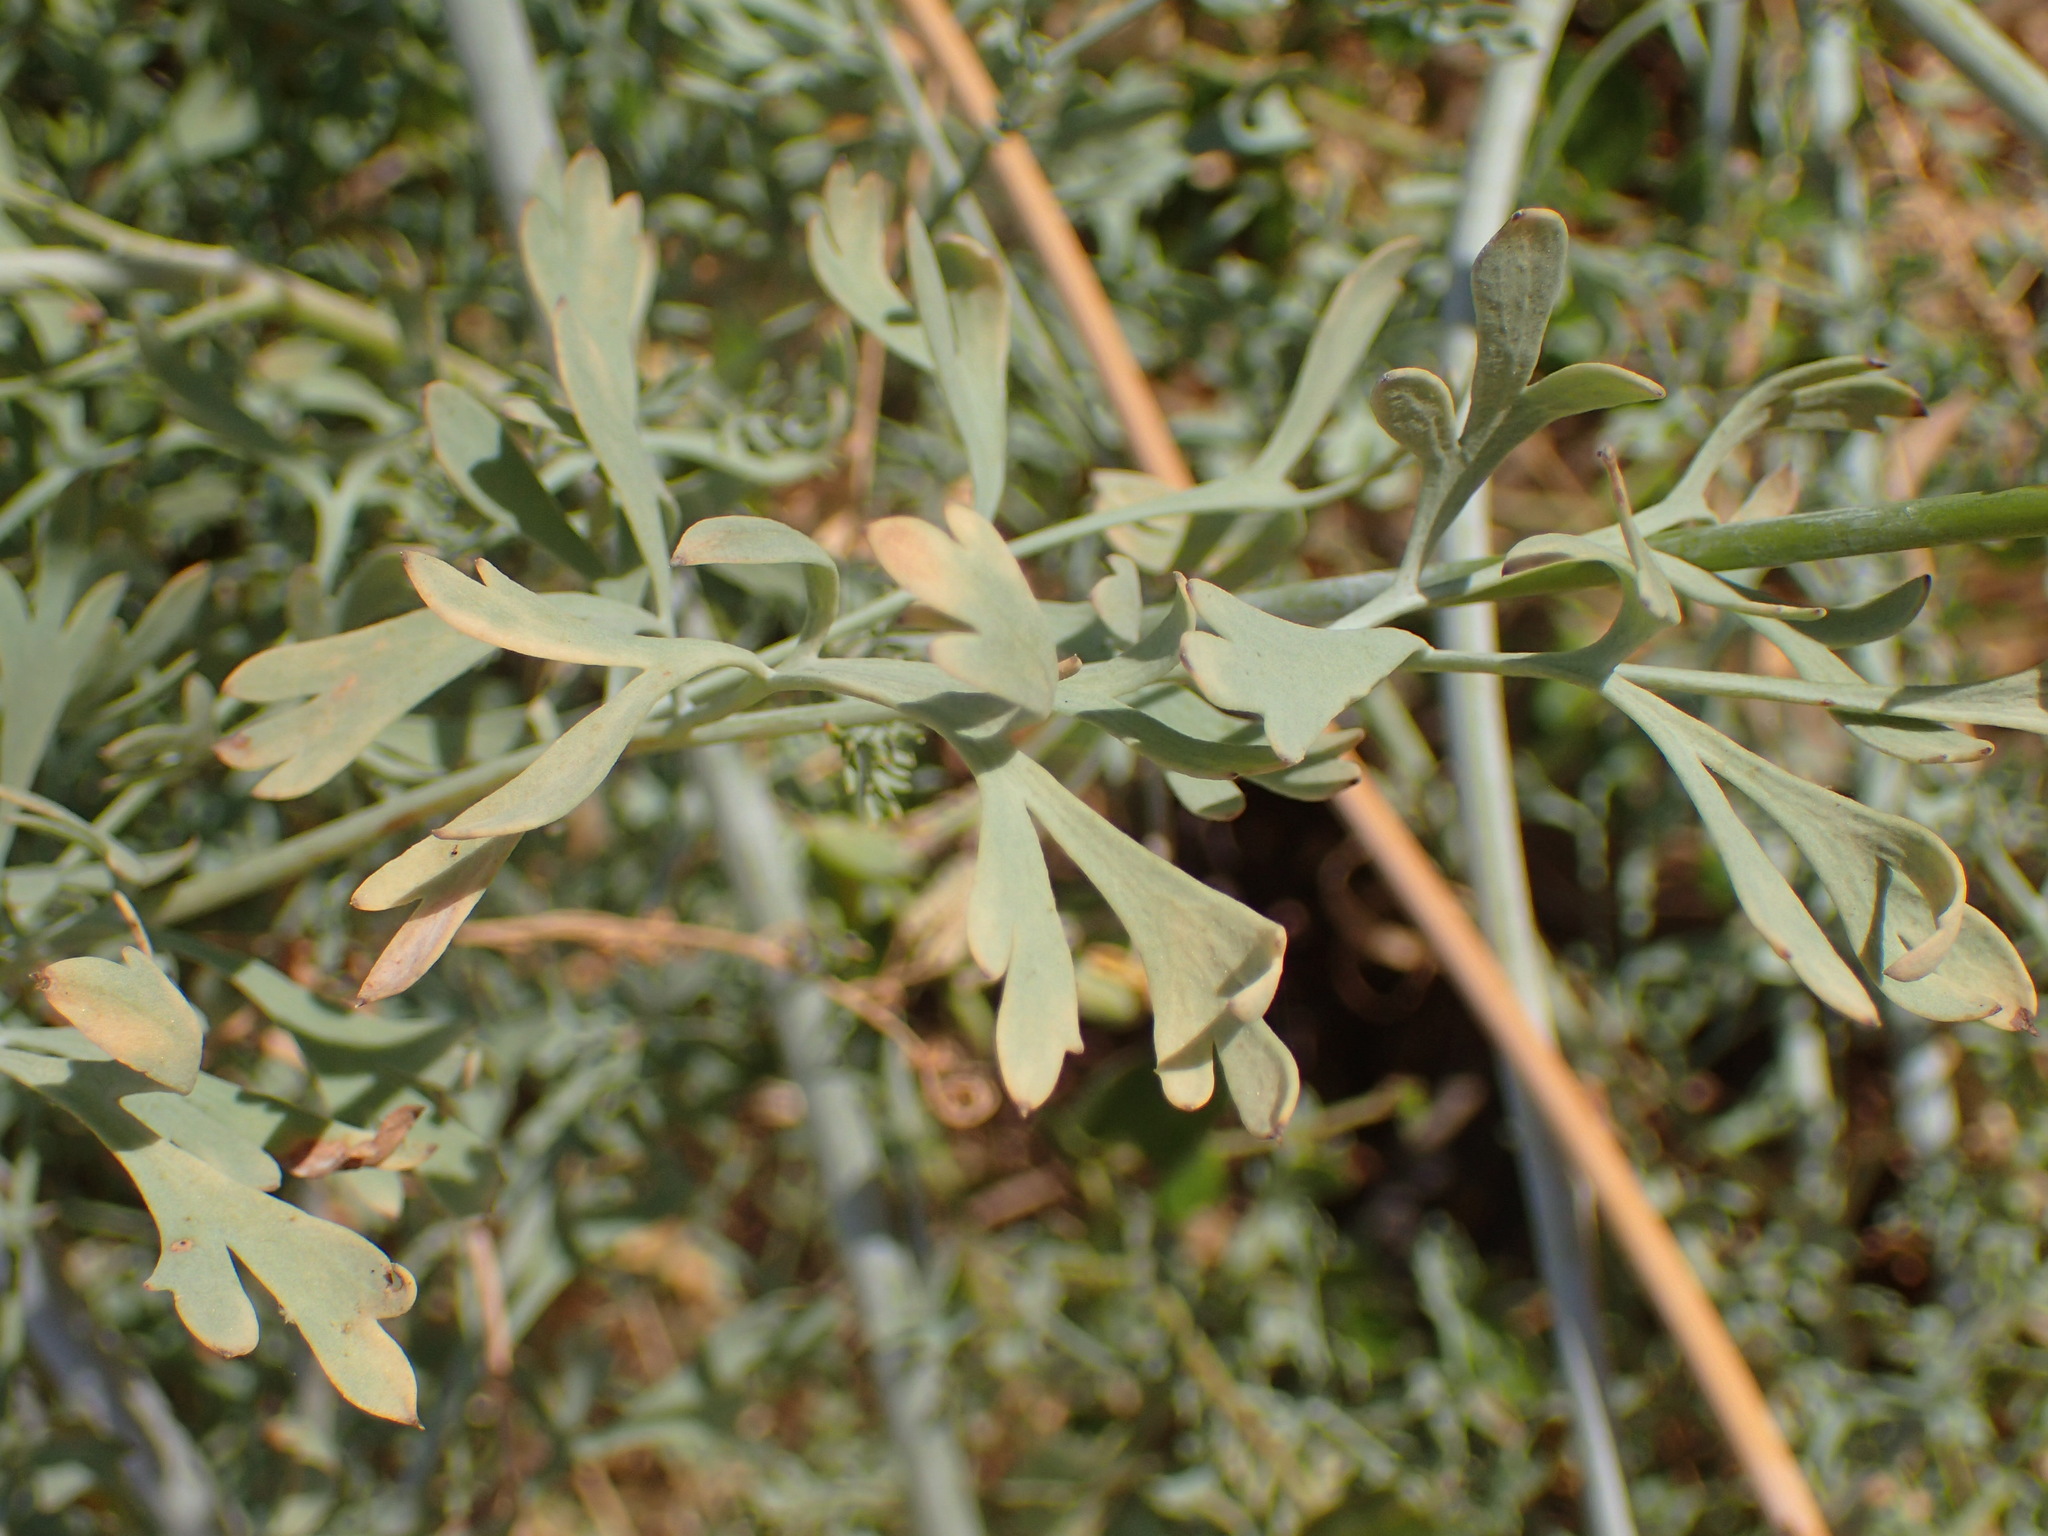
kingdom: Plantae
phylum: Tracheophyta
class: Magnoliopsida
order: Ranunculales
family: Papaveraceae
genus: Ehrendorferia
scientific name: Ehrendorferia chrysantha
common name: Golden eardrops
